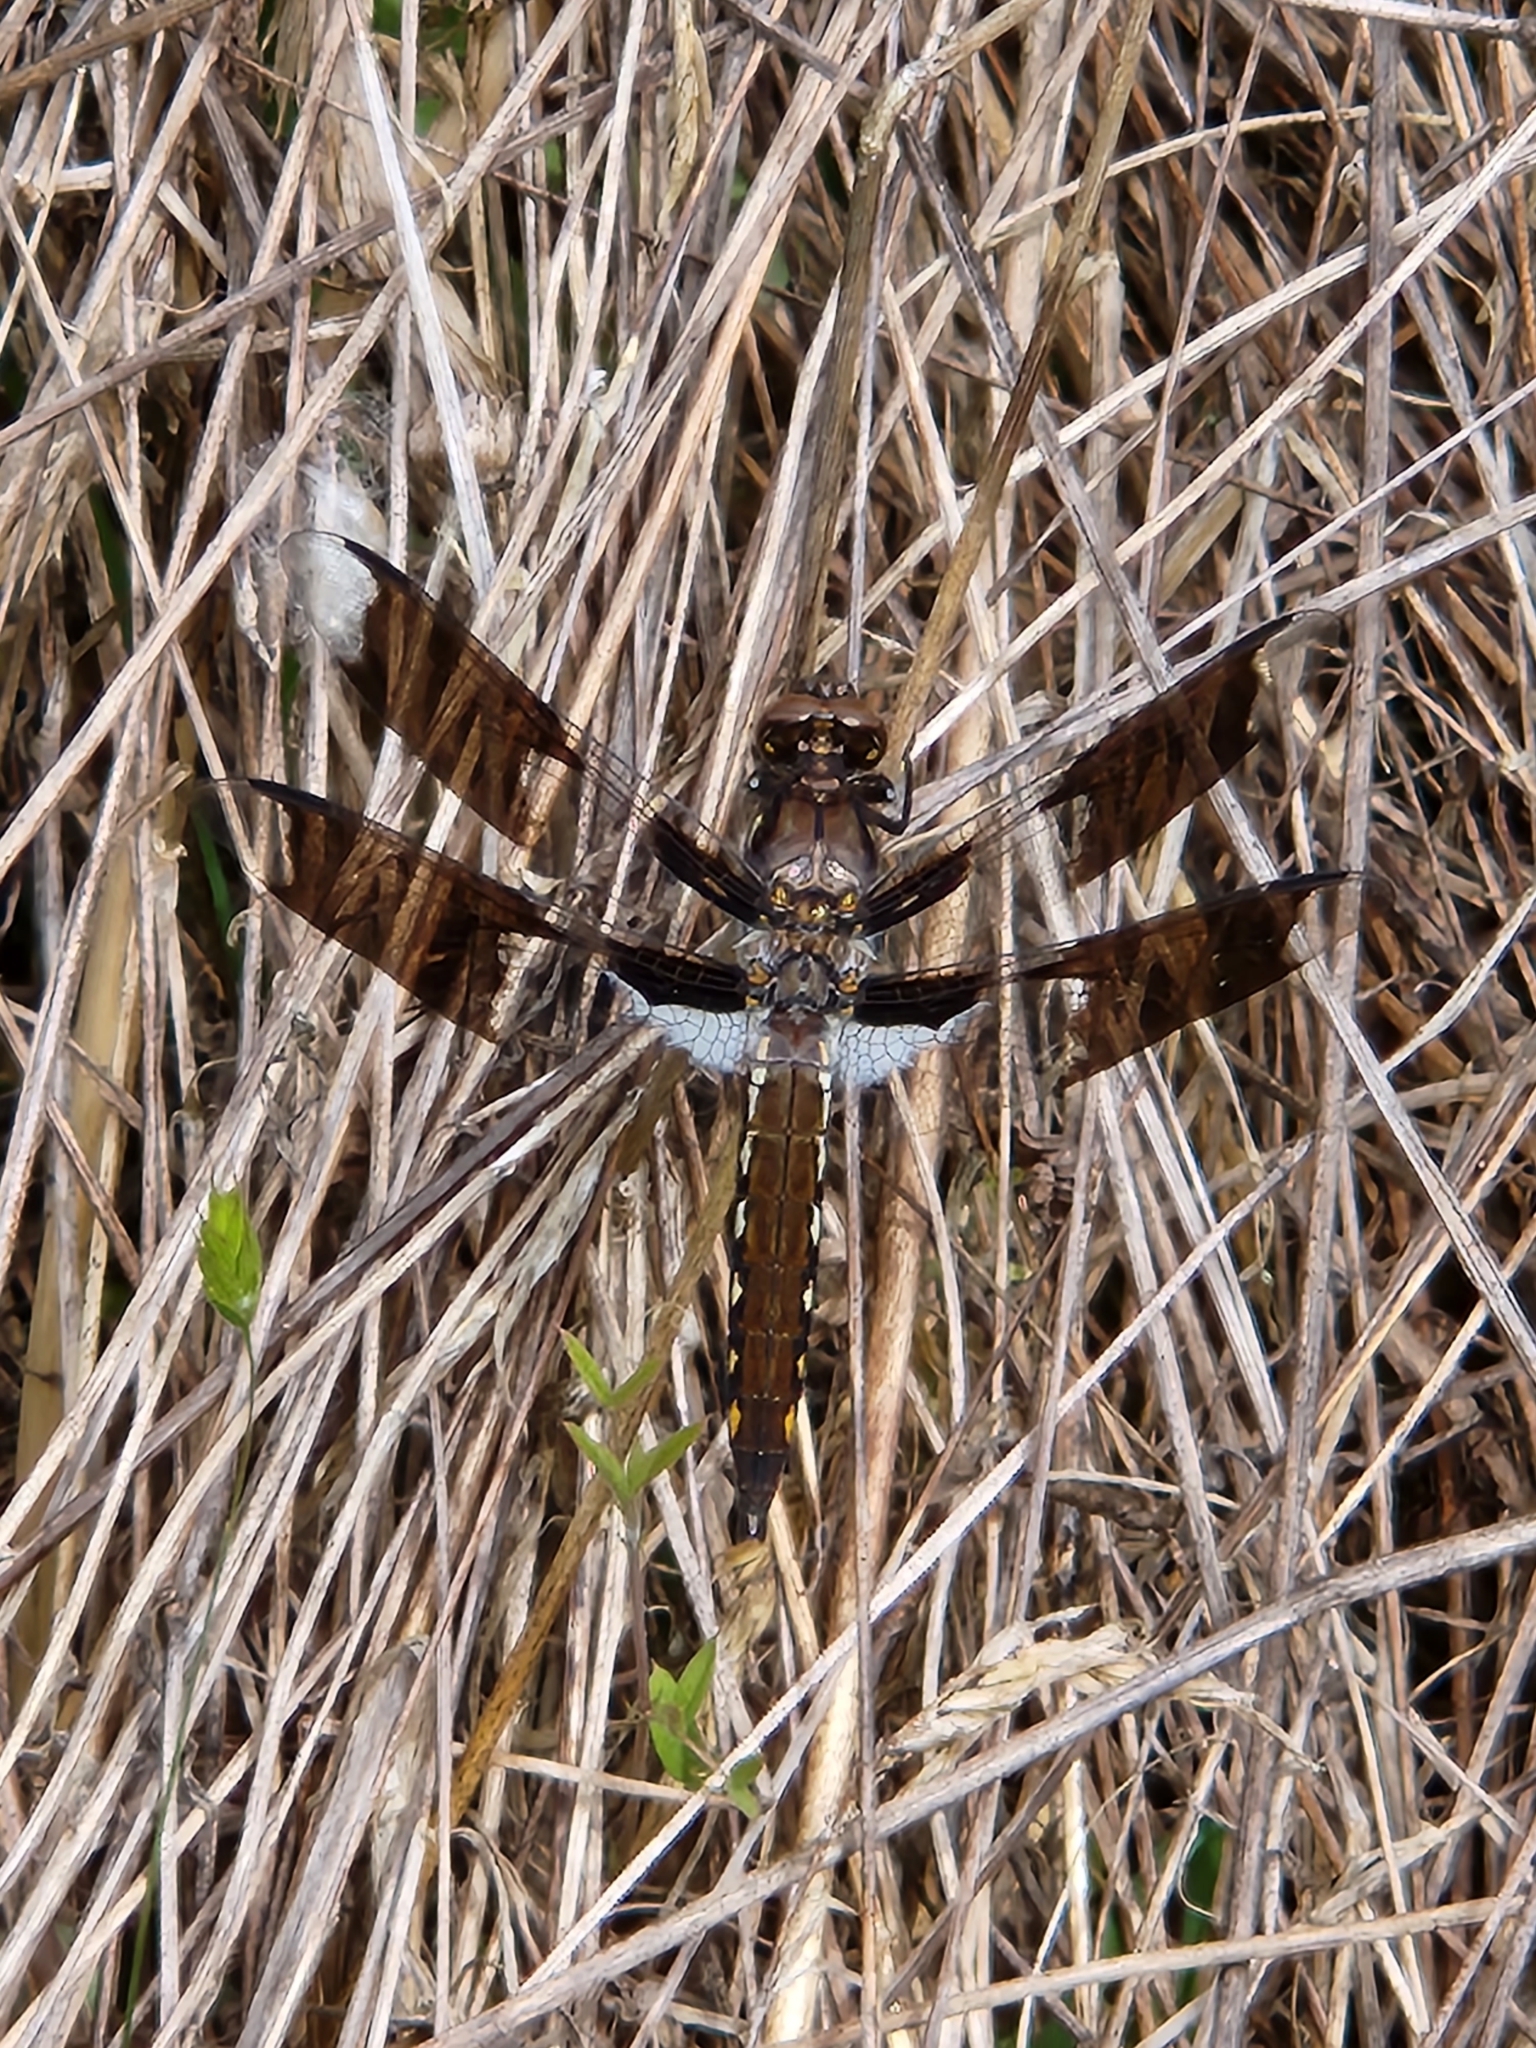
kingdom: Animalia
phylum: Arthropoda
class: Insecta
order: Odonata
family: Libellulidae
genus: Plathemis
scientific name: Plathemis lydia
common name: Common whitetail
